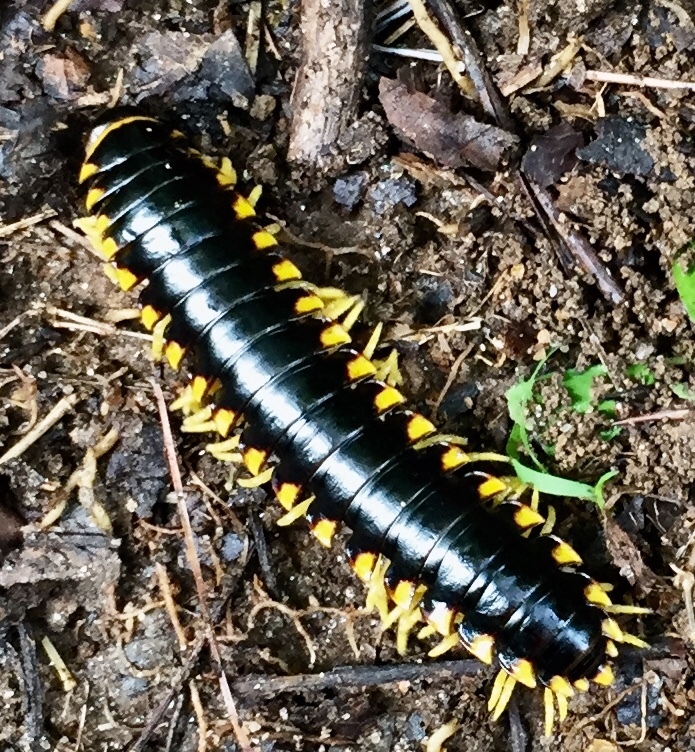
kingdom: Animalia
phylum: Arthropoda
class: Diplopoda
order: Polydesmida
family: Xystodesmidae
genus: Apheloria
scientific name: Apheloria tigana
